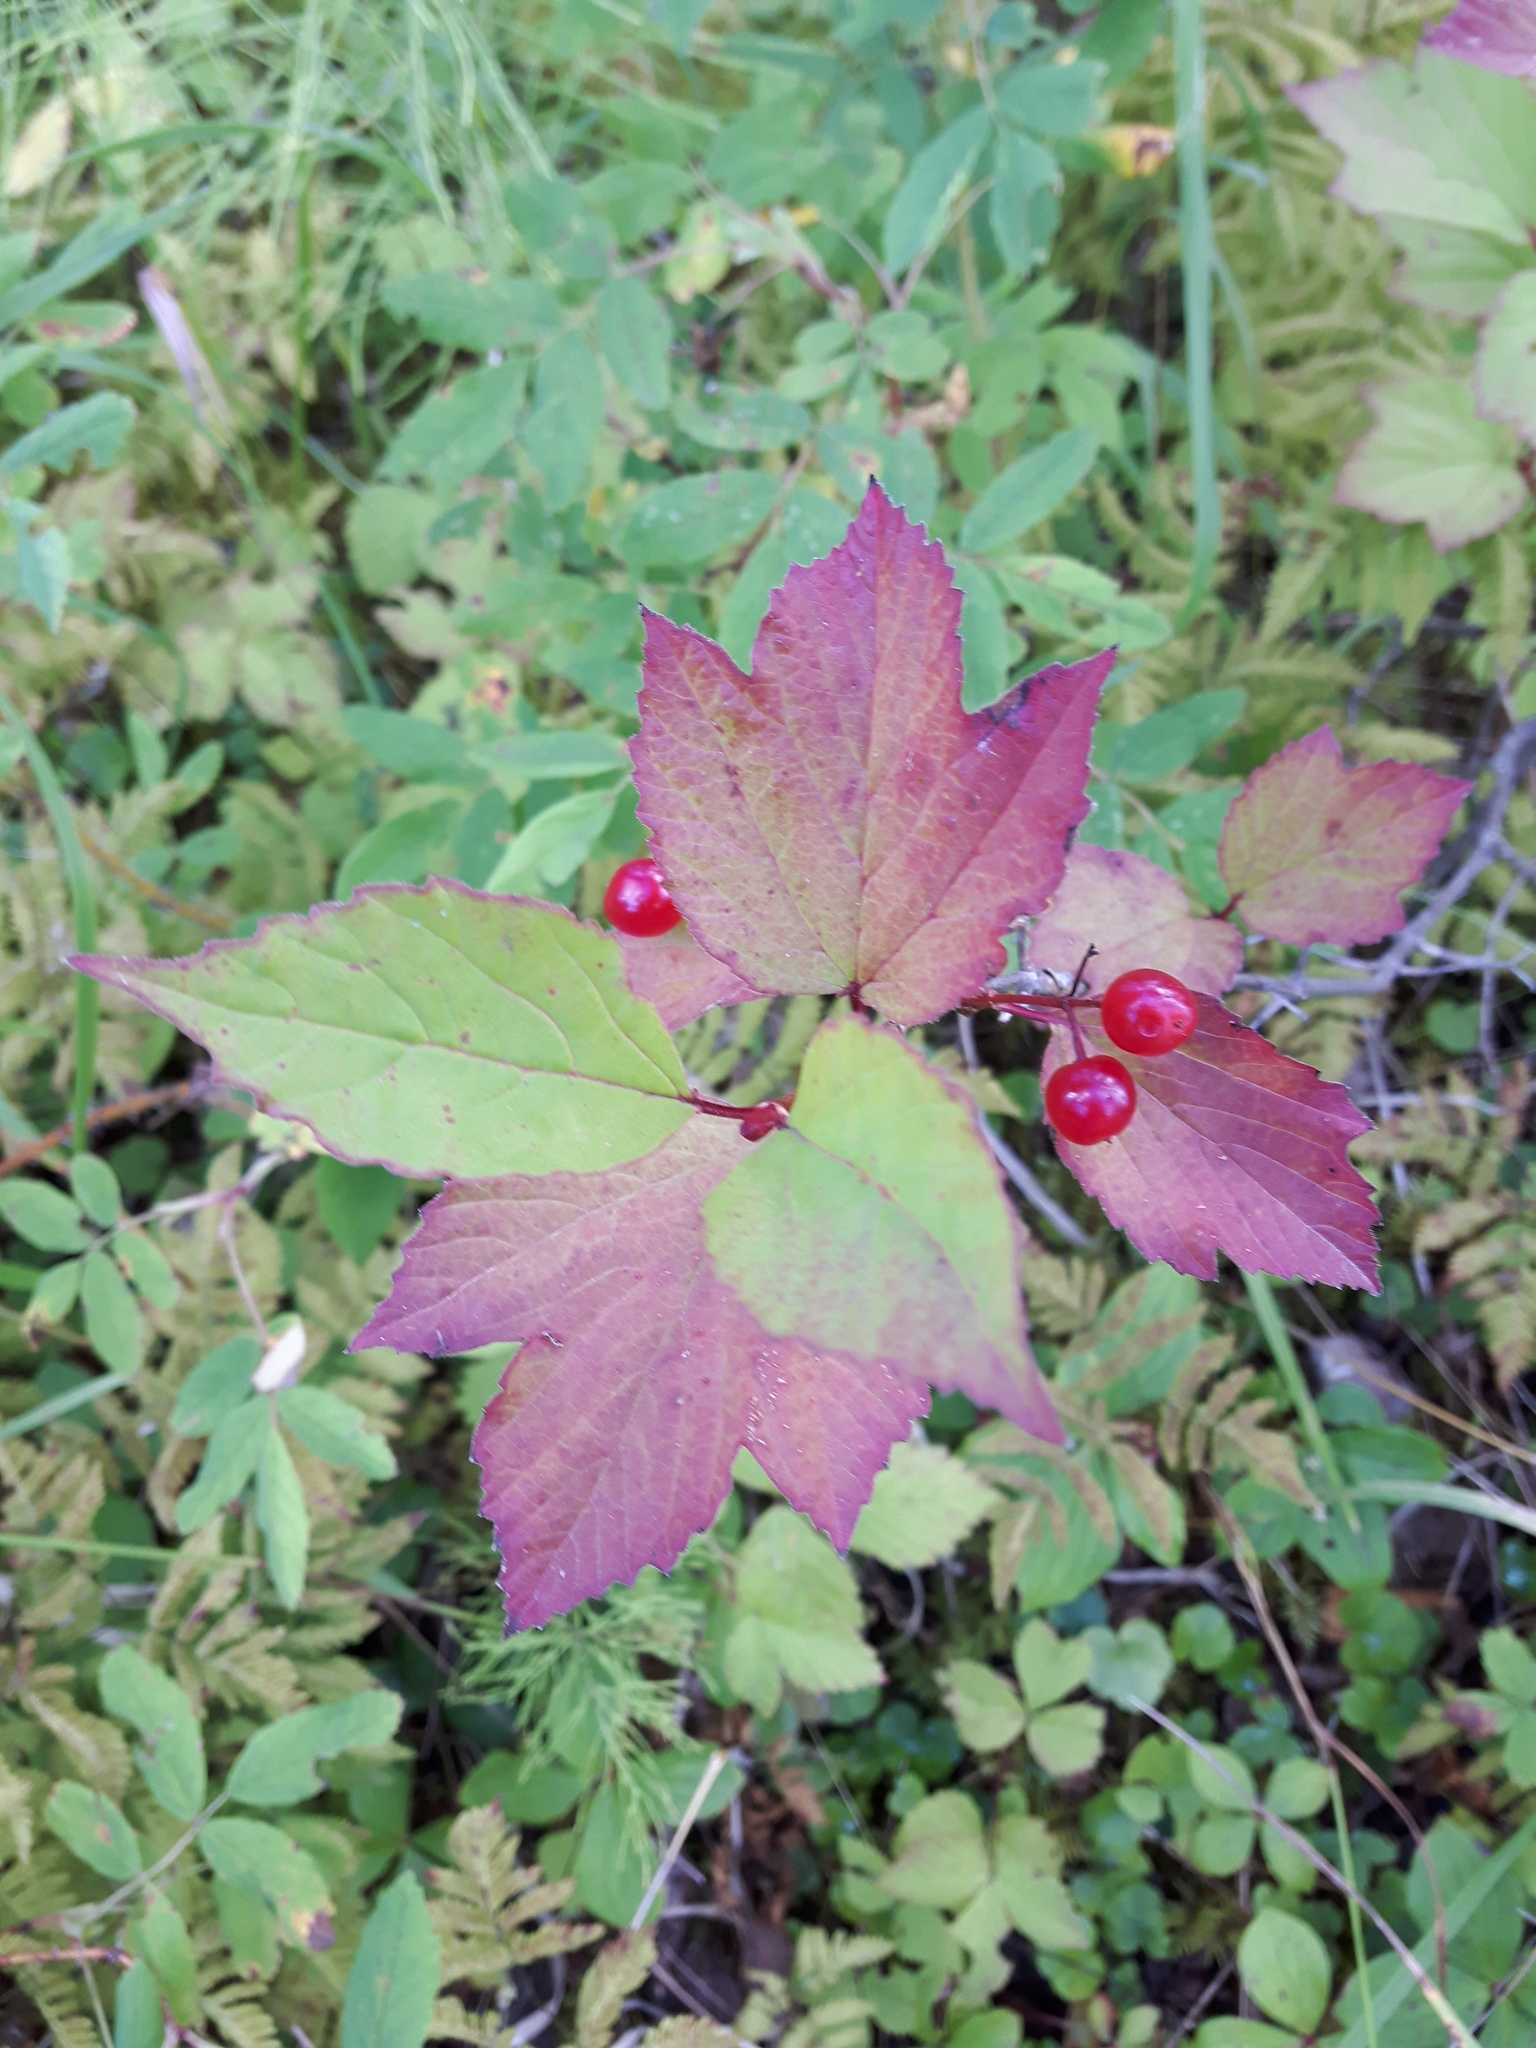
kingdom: Plantae
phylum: Tracheophyta
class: Magnoliopsida
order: Dipsacales
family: Viburnaceae
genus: Viburnum
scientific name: Viburnum edule
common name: Mooseberry
